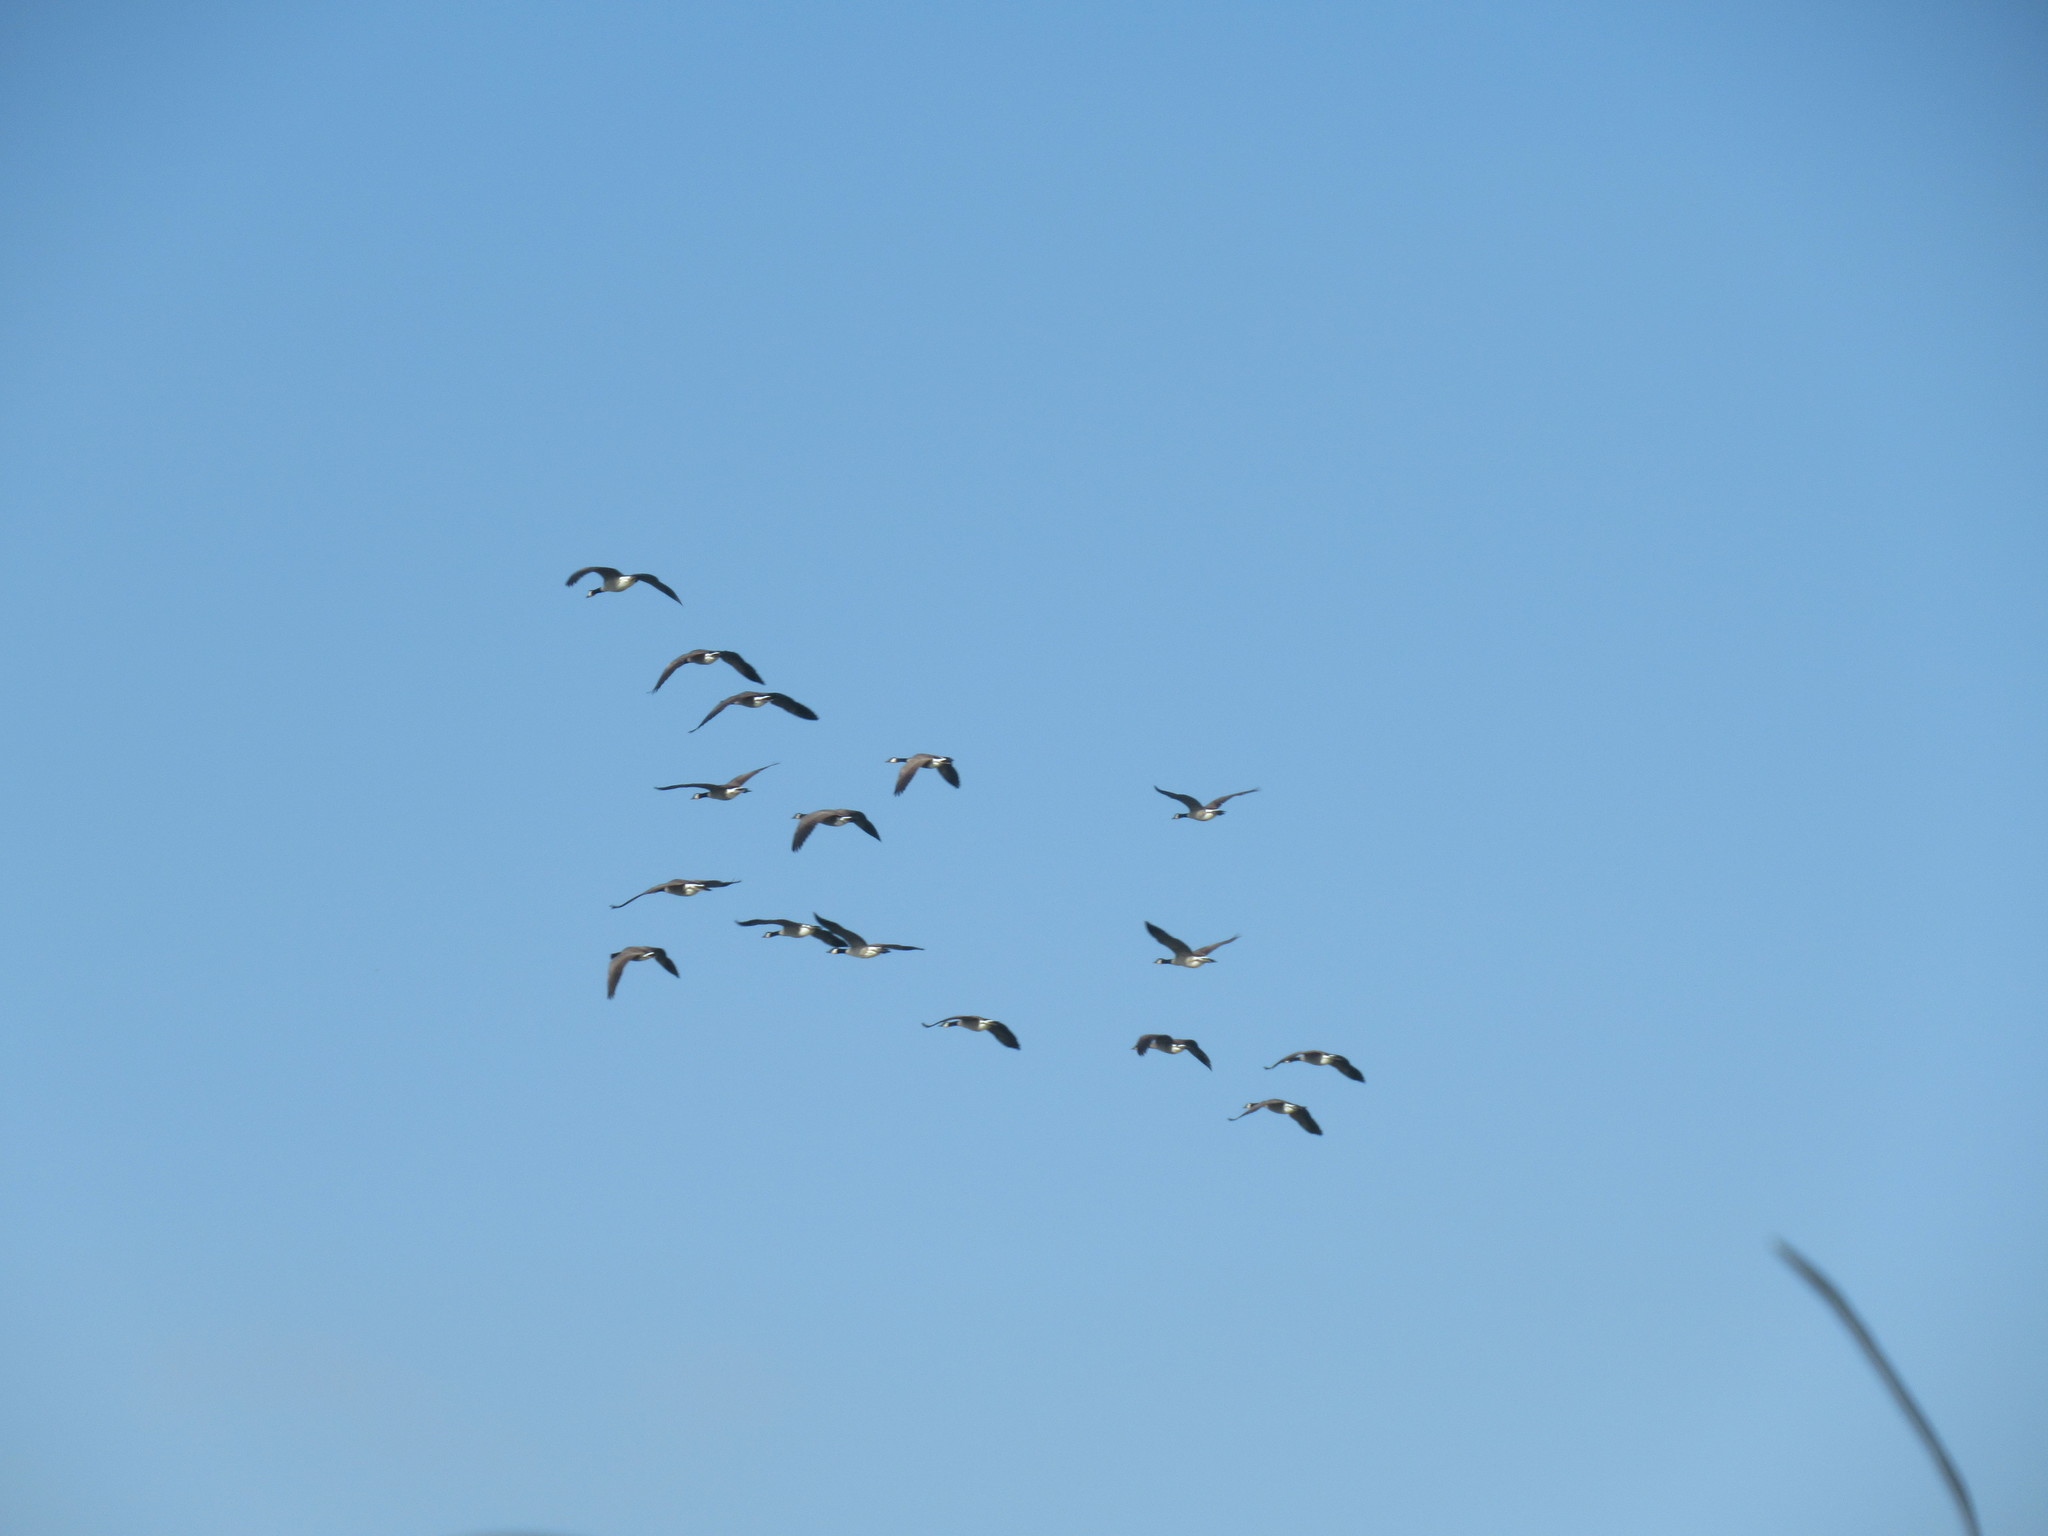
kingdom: Animalia
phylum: Chordata
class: Aves
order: Anseriformes
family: Anatidae
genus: Branta
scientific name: Branta canadensis
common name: Canada goose
